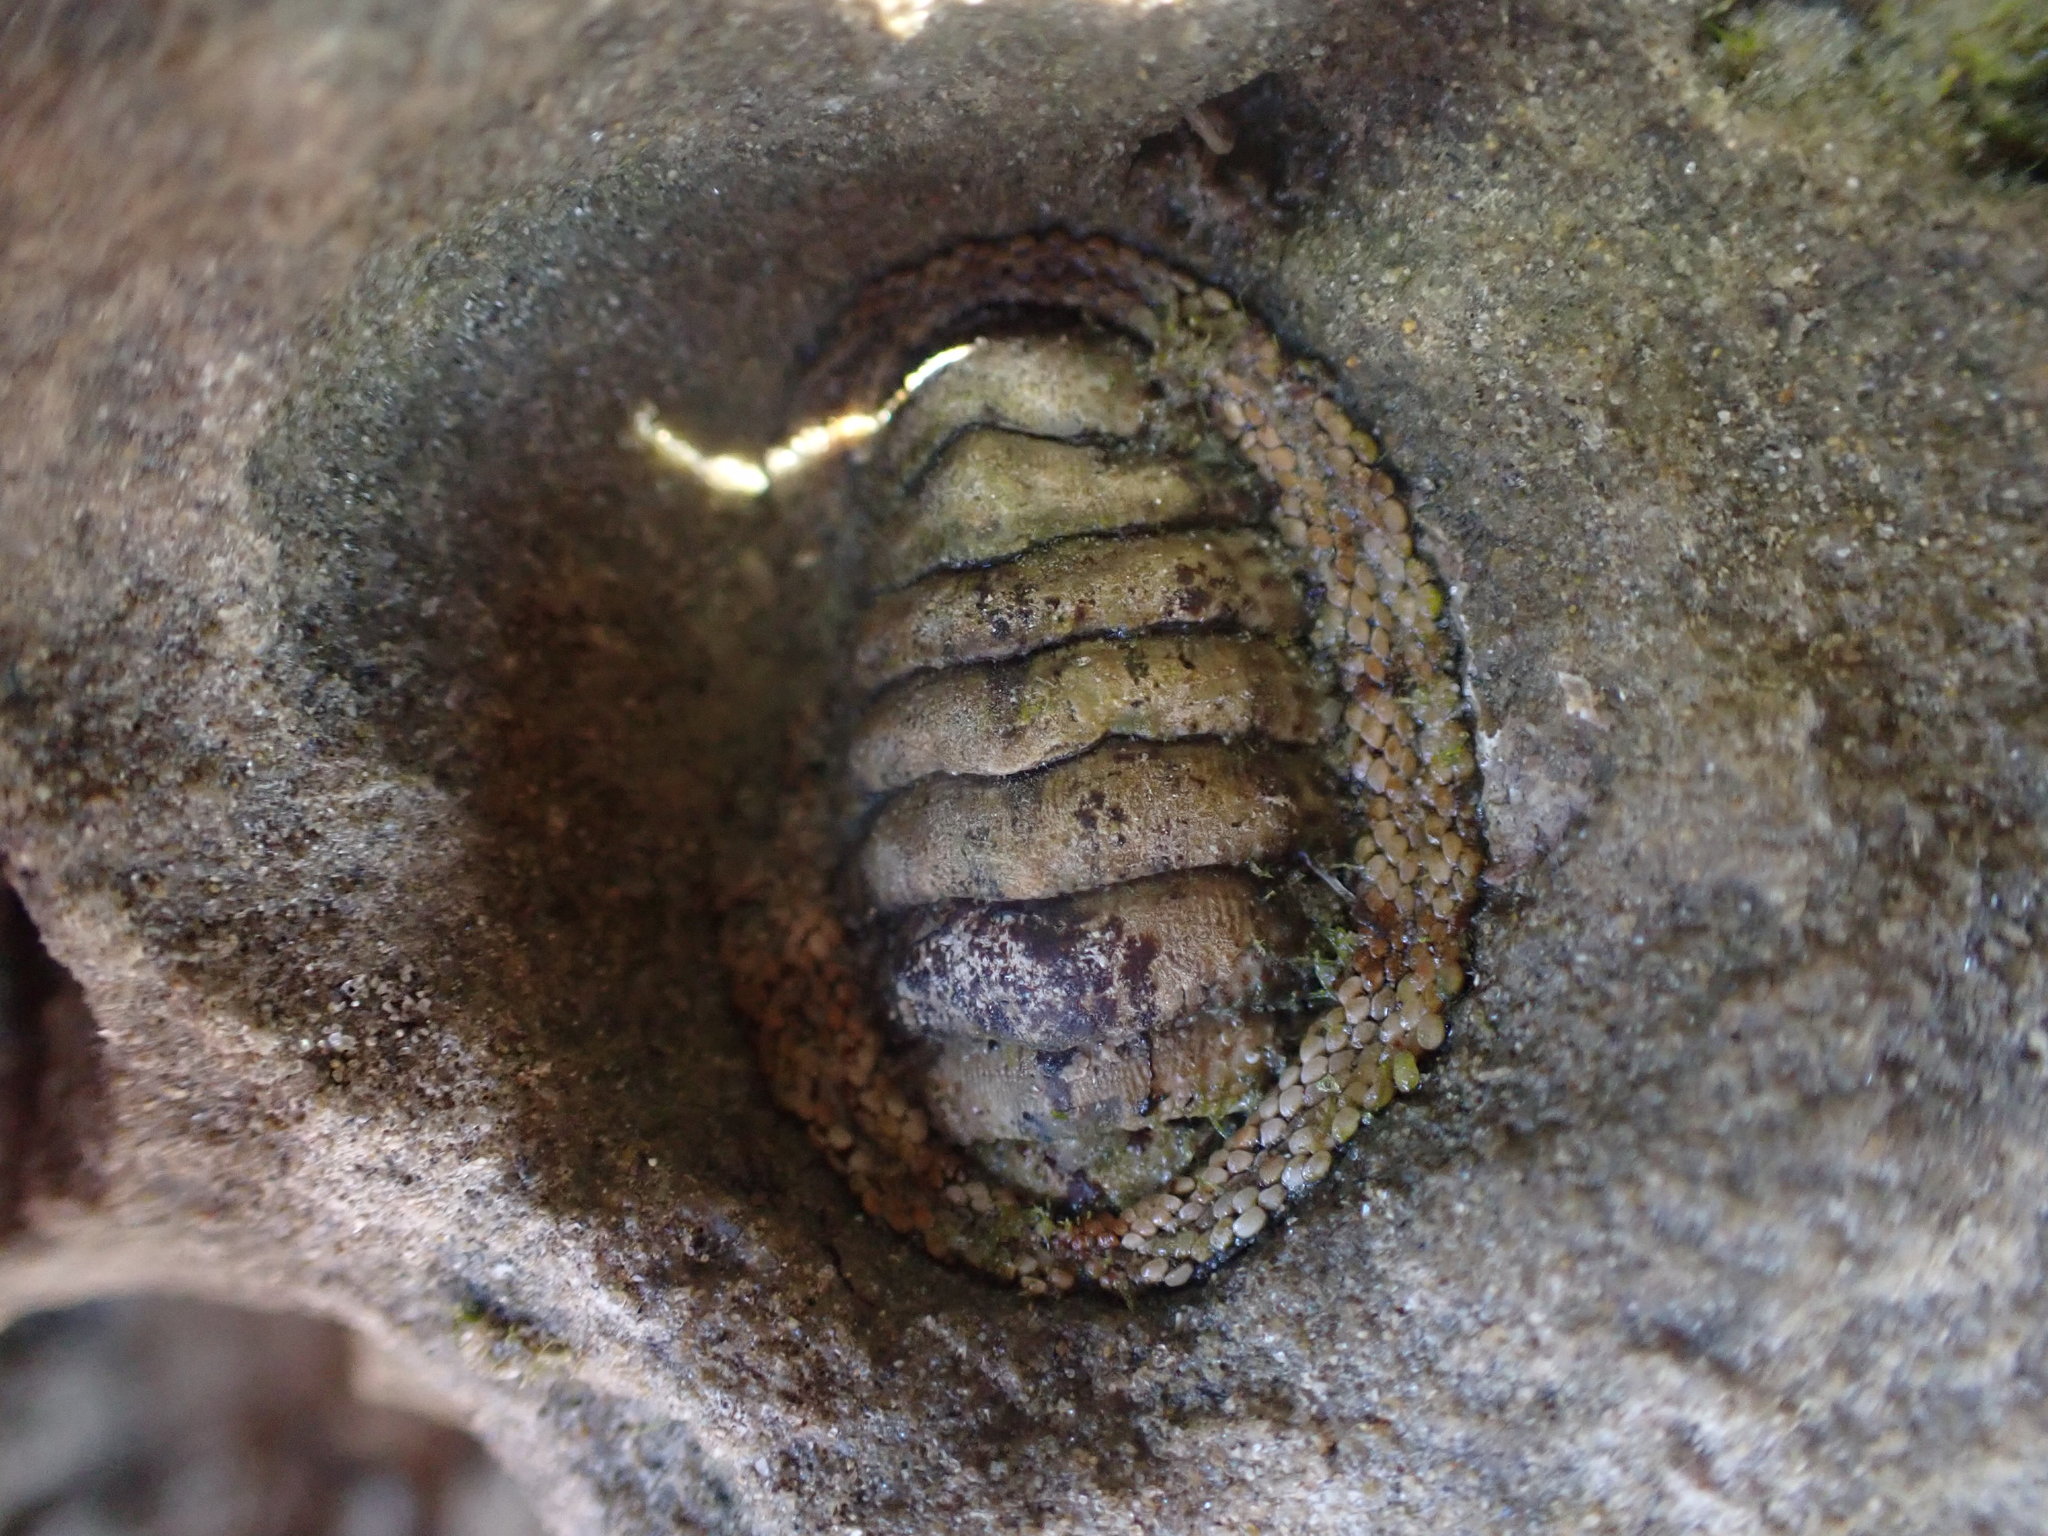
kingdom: Animalia
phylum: Mollusca
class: Polyplacophora
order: Chitonida
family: Chitonidae
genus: Sypharochiton
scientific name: Sypharochiton pelliserpentis
